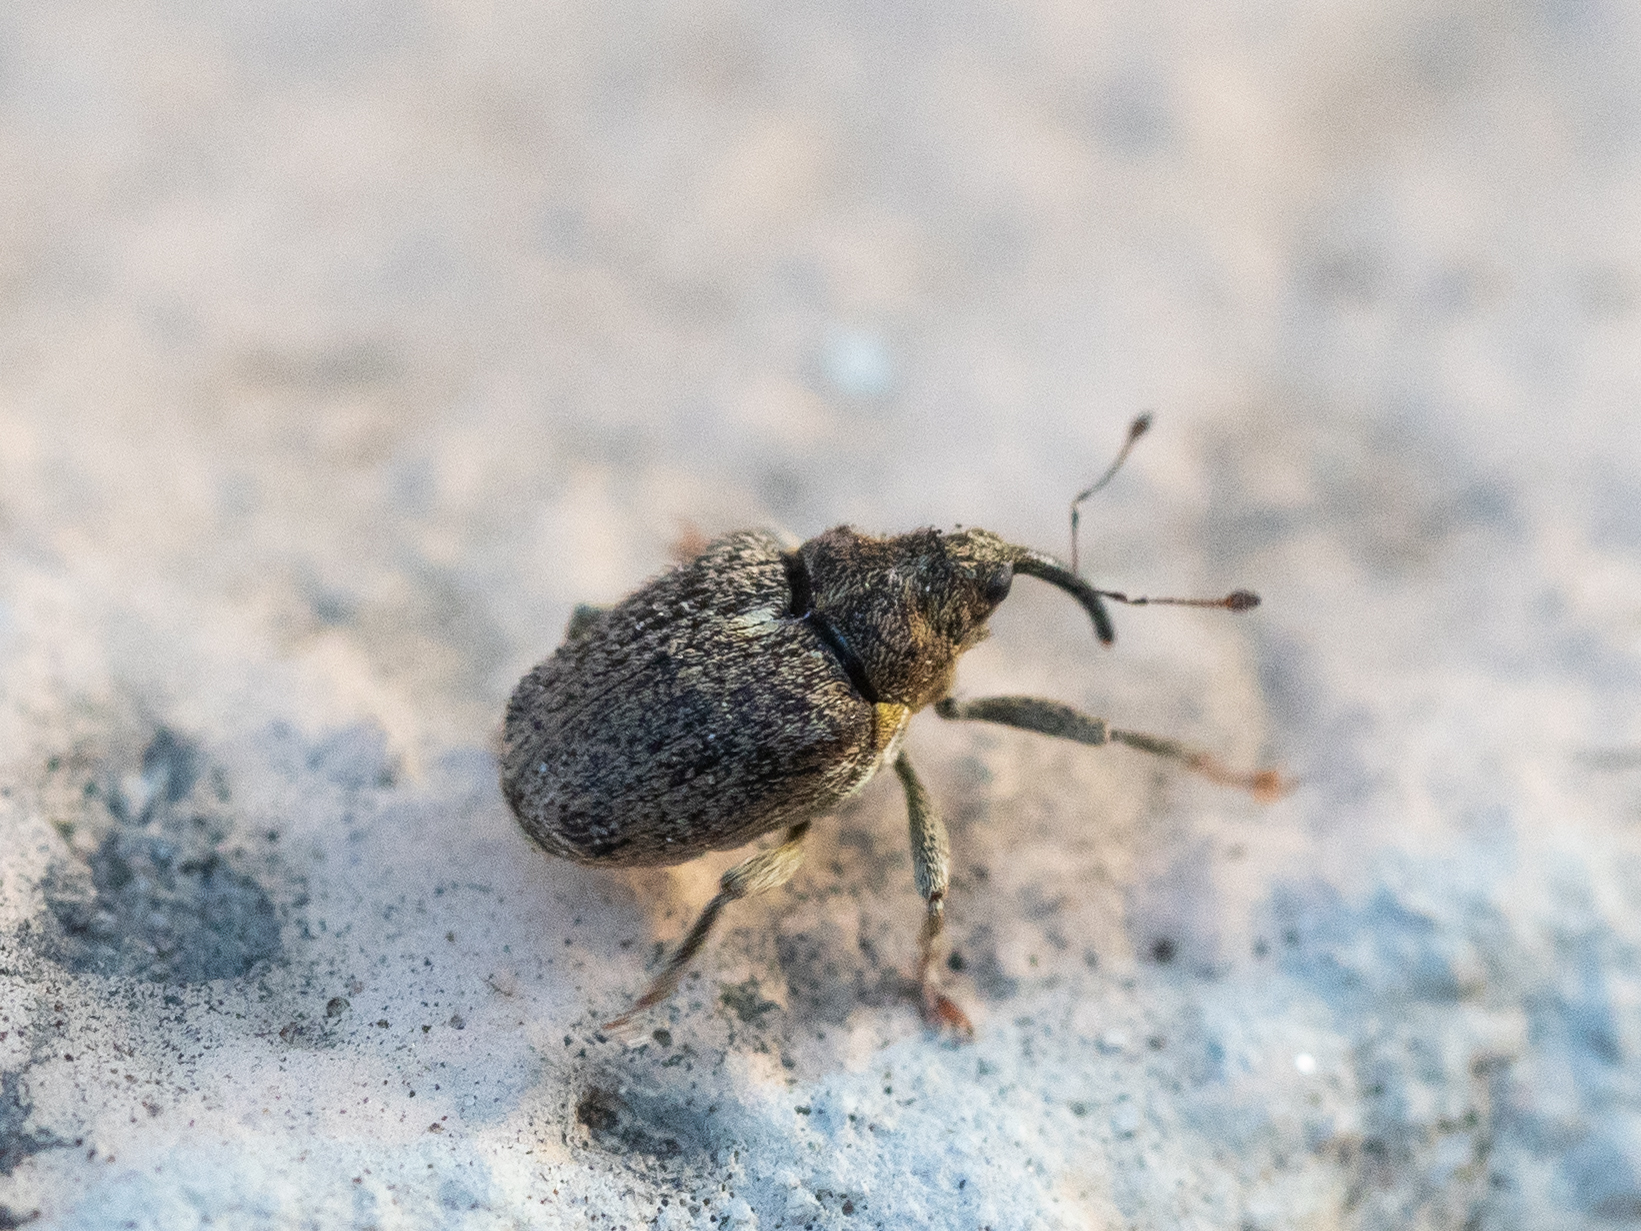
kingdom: Animalia
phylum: Arthropoda
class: Insecta
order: Coleoptera
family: Curculionidae
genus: Ceutorhynchus
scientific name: Ceutorhynchus pallidactylus
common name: Cabbage stem weavil
